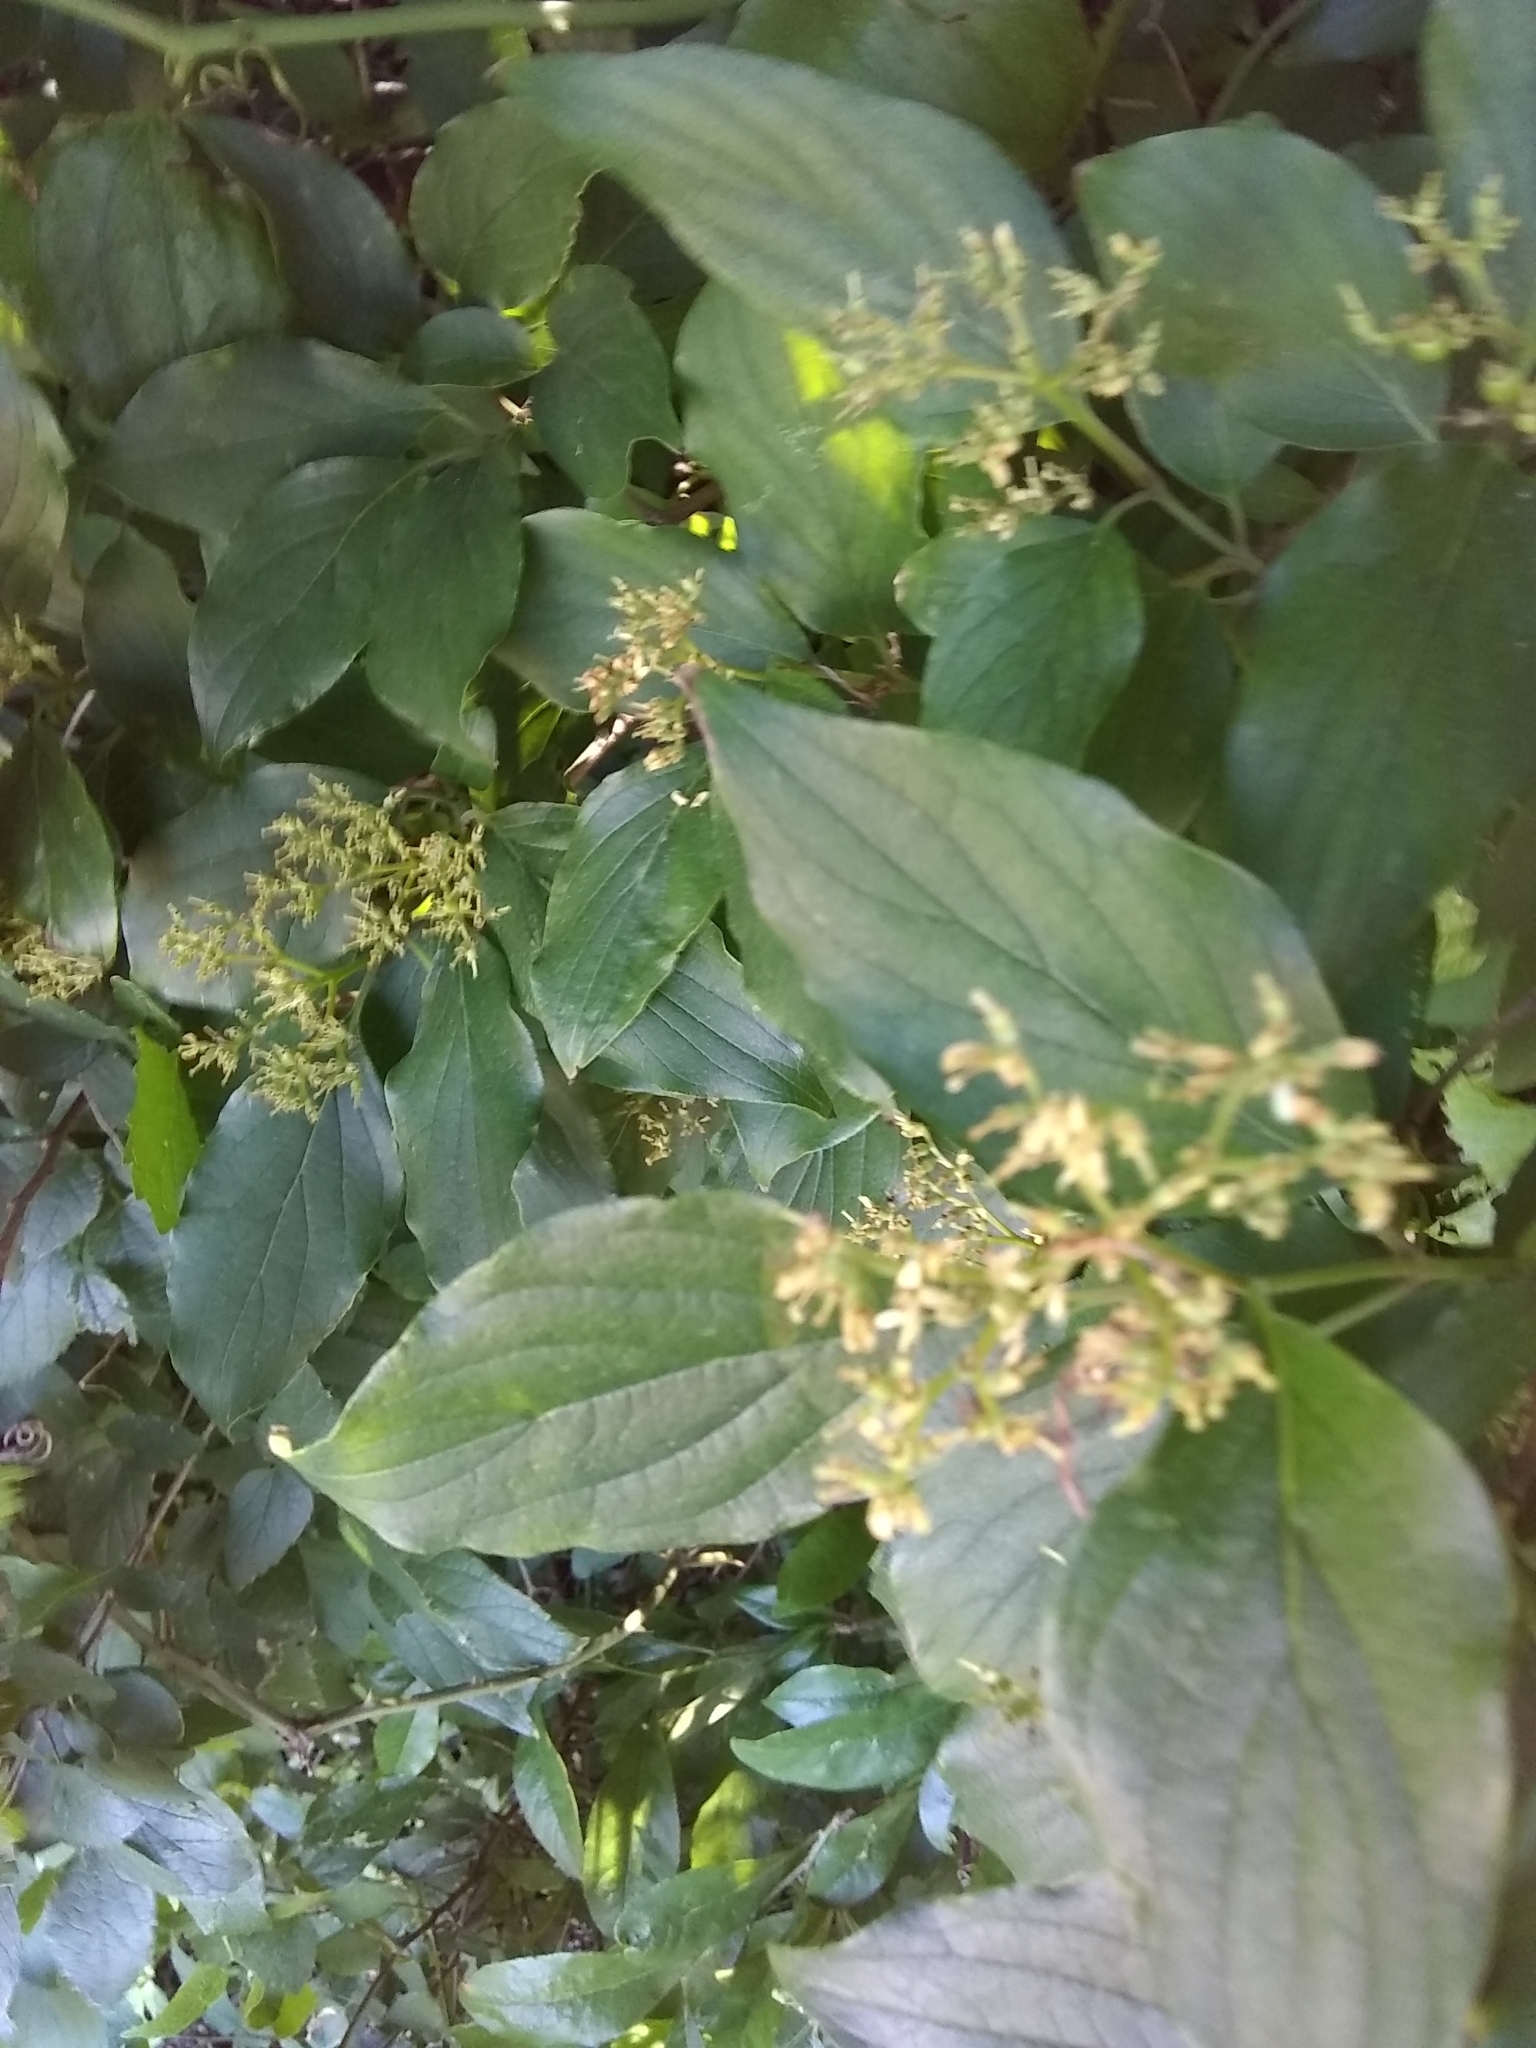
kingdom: Plantae
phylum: Tracheophyta
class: Magnoliopsida
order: Cornales
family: Cornaceae
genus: Cornus
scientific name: Cornus drummondii
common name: Rough-leaf dogwood
